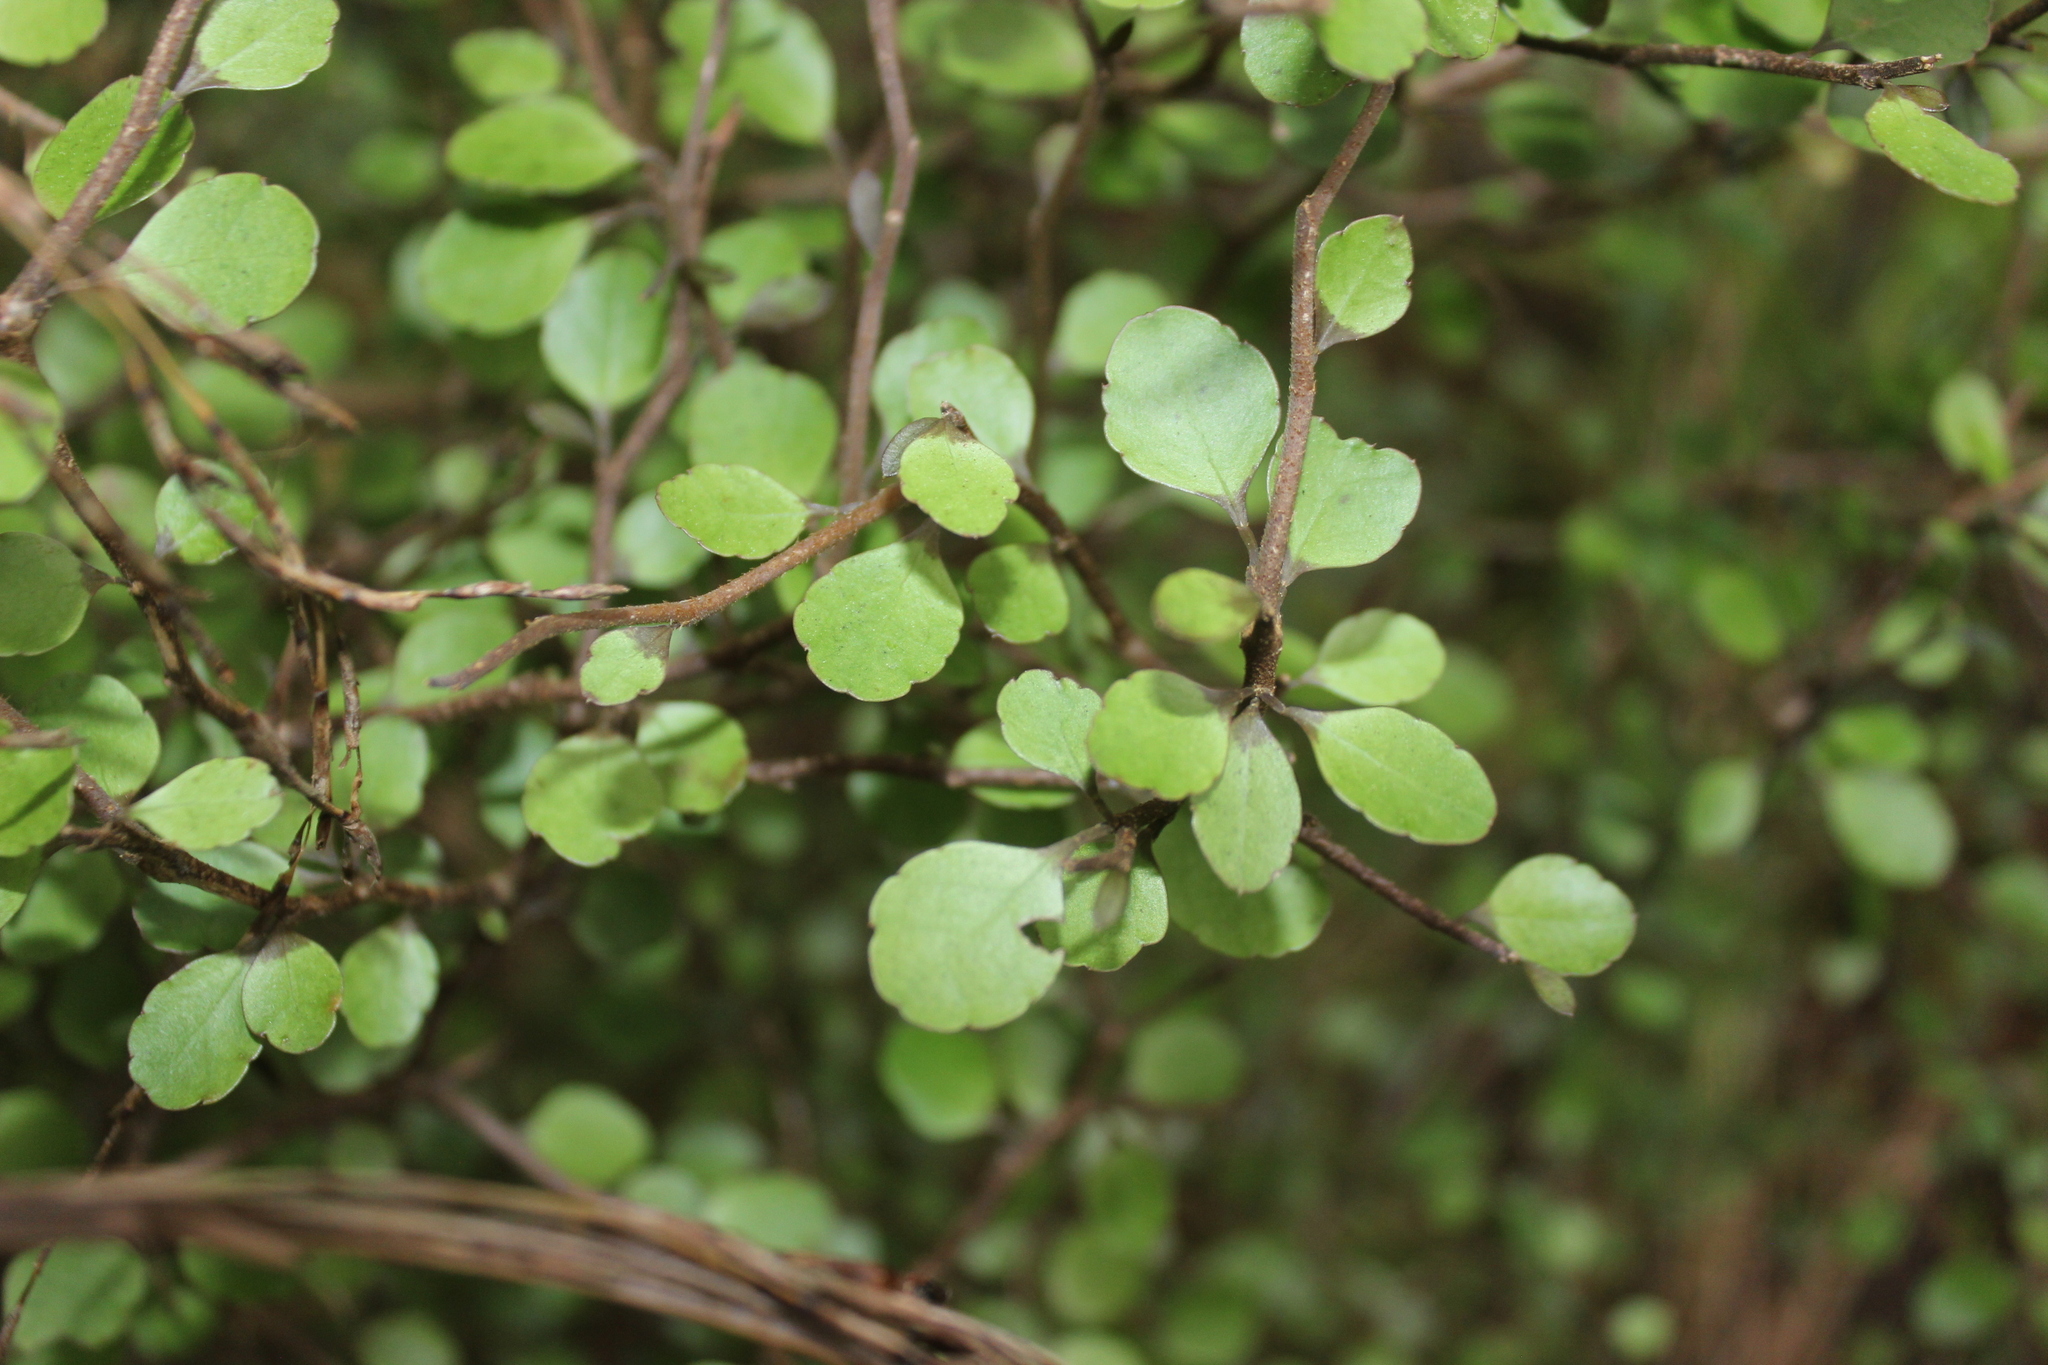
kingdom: Plantae
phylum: Tracheophyta
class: Magnoliopsida
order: Apiales
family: Araliaceae
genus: Raukaua
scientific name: Raukaua anomalus
